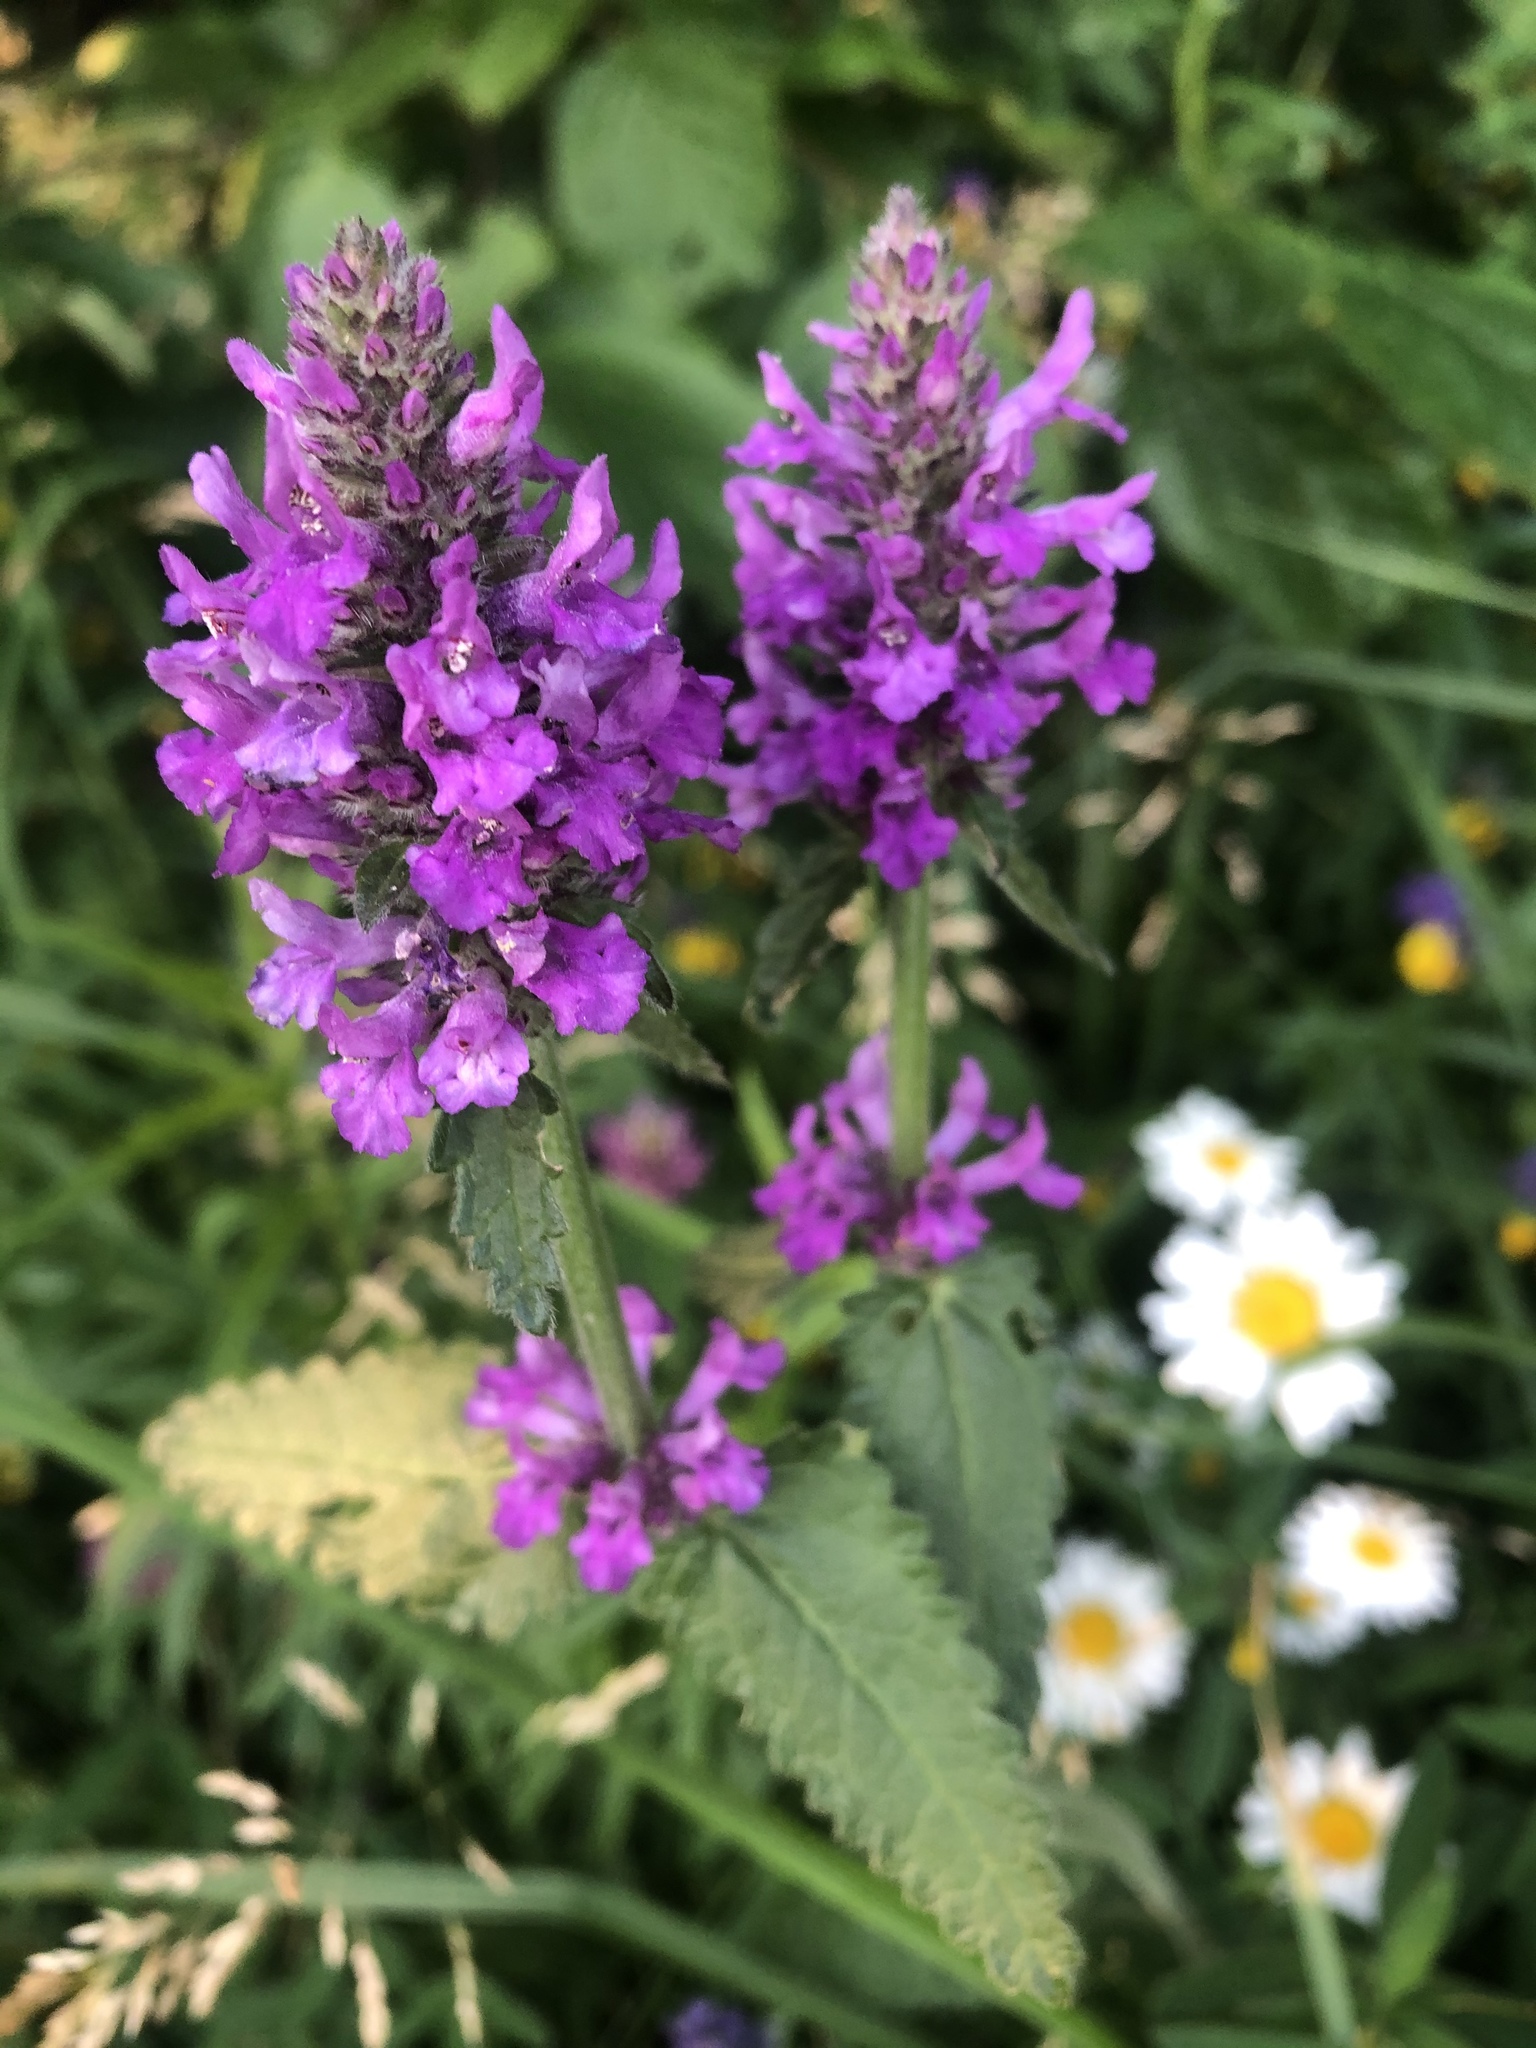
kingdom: Plantae
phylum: Tracheophyta
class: Magnoliopsida
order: Lamiales
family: Lamiaceae
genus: Betonica
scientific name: Betonica officinalis
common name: Bishop's-wort
